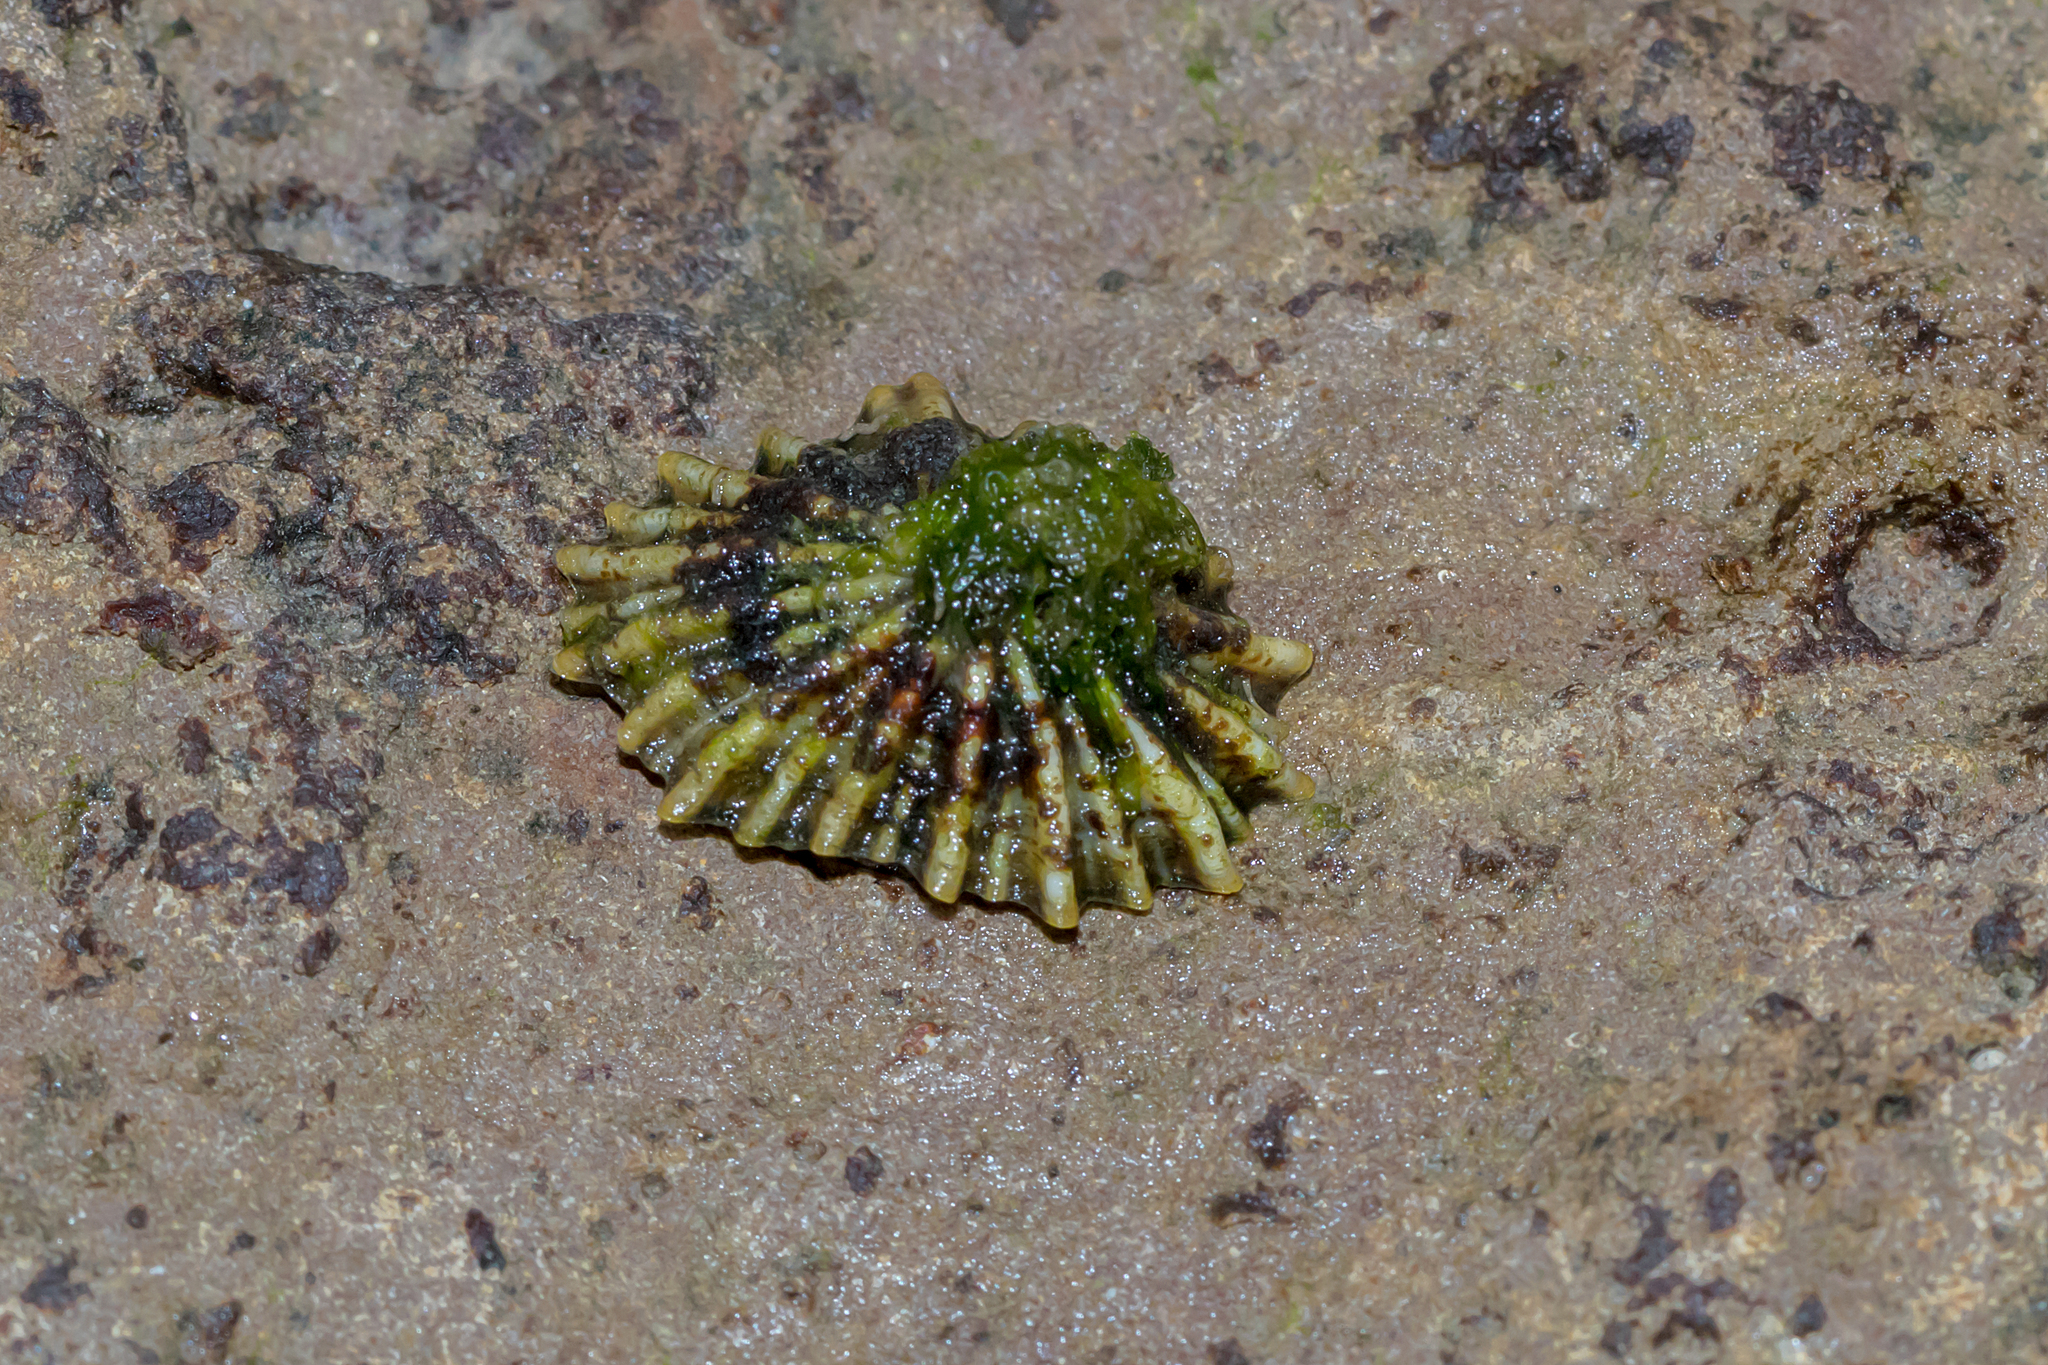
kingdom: Animalia
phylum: Mollusca
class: Gastropoda
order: Siphonariida
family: Siphonariidae
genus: Siphonaria
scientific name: Siphonaria diemenensis
